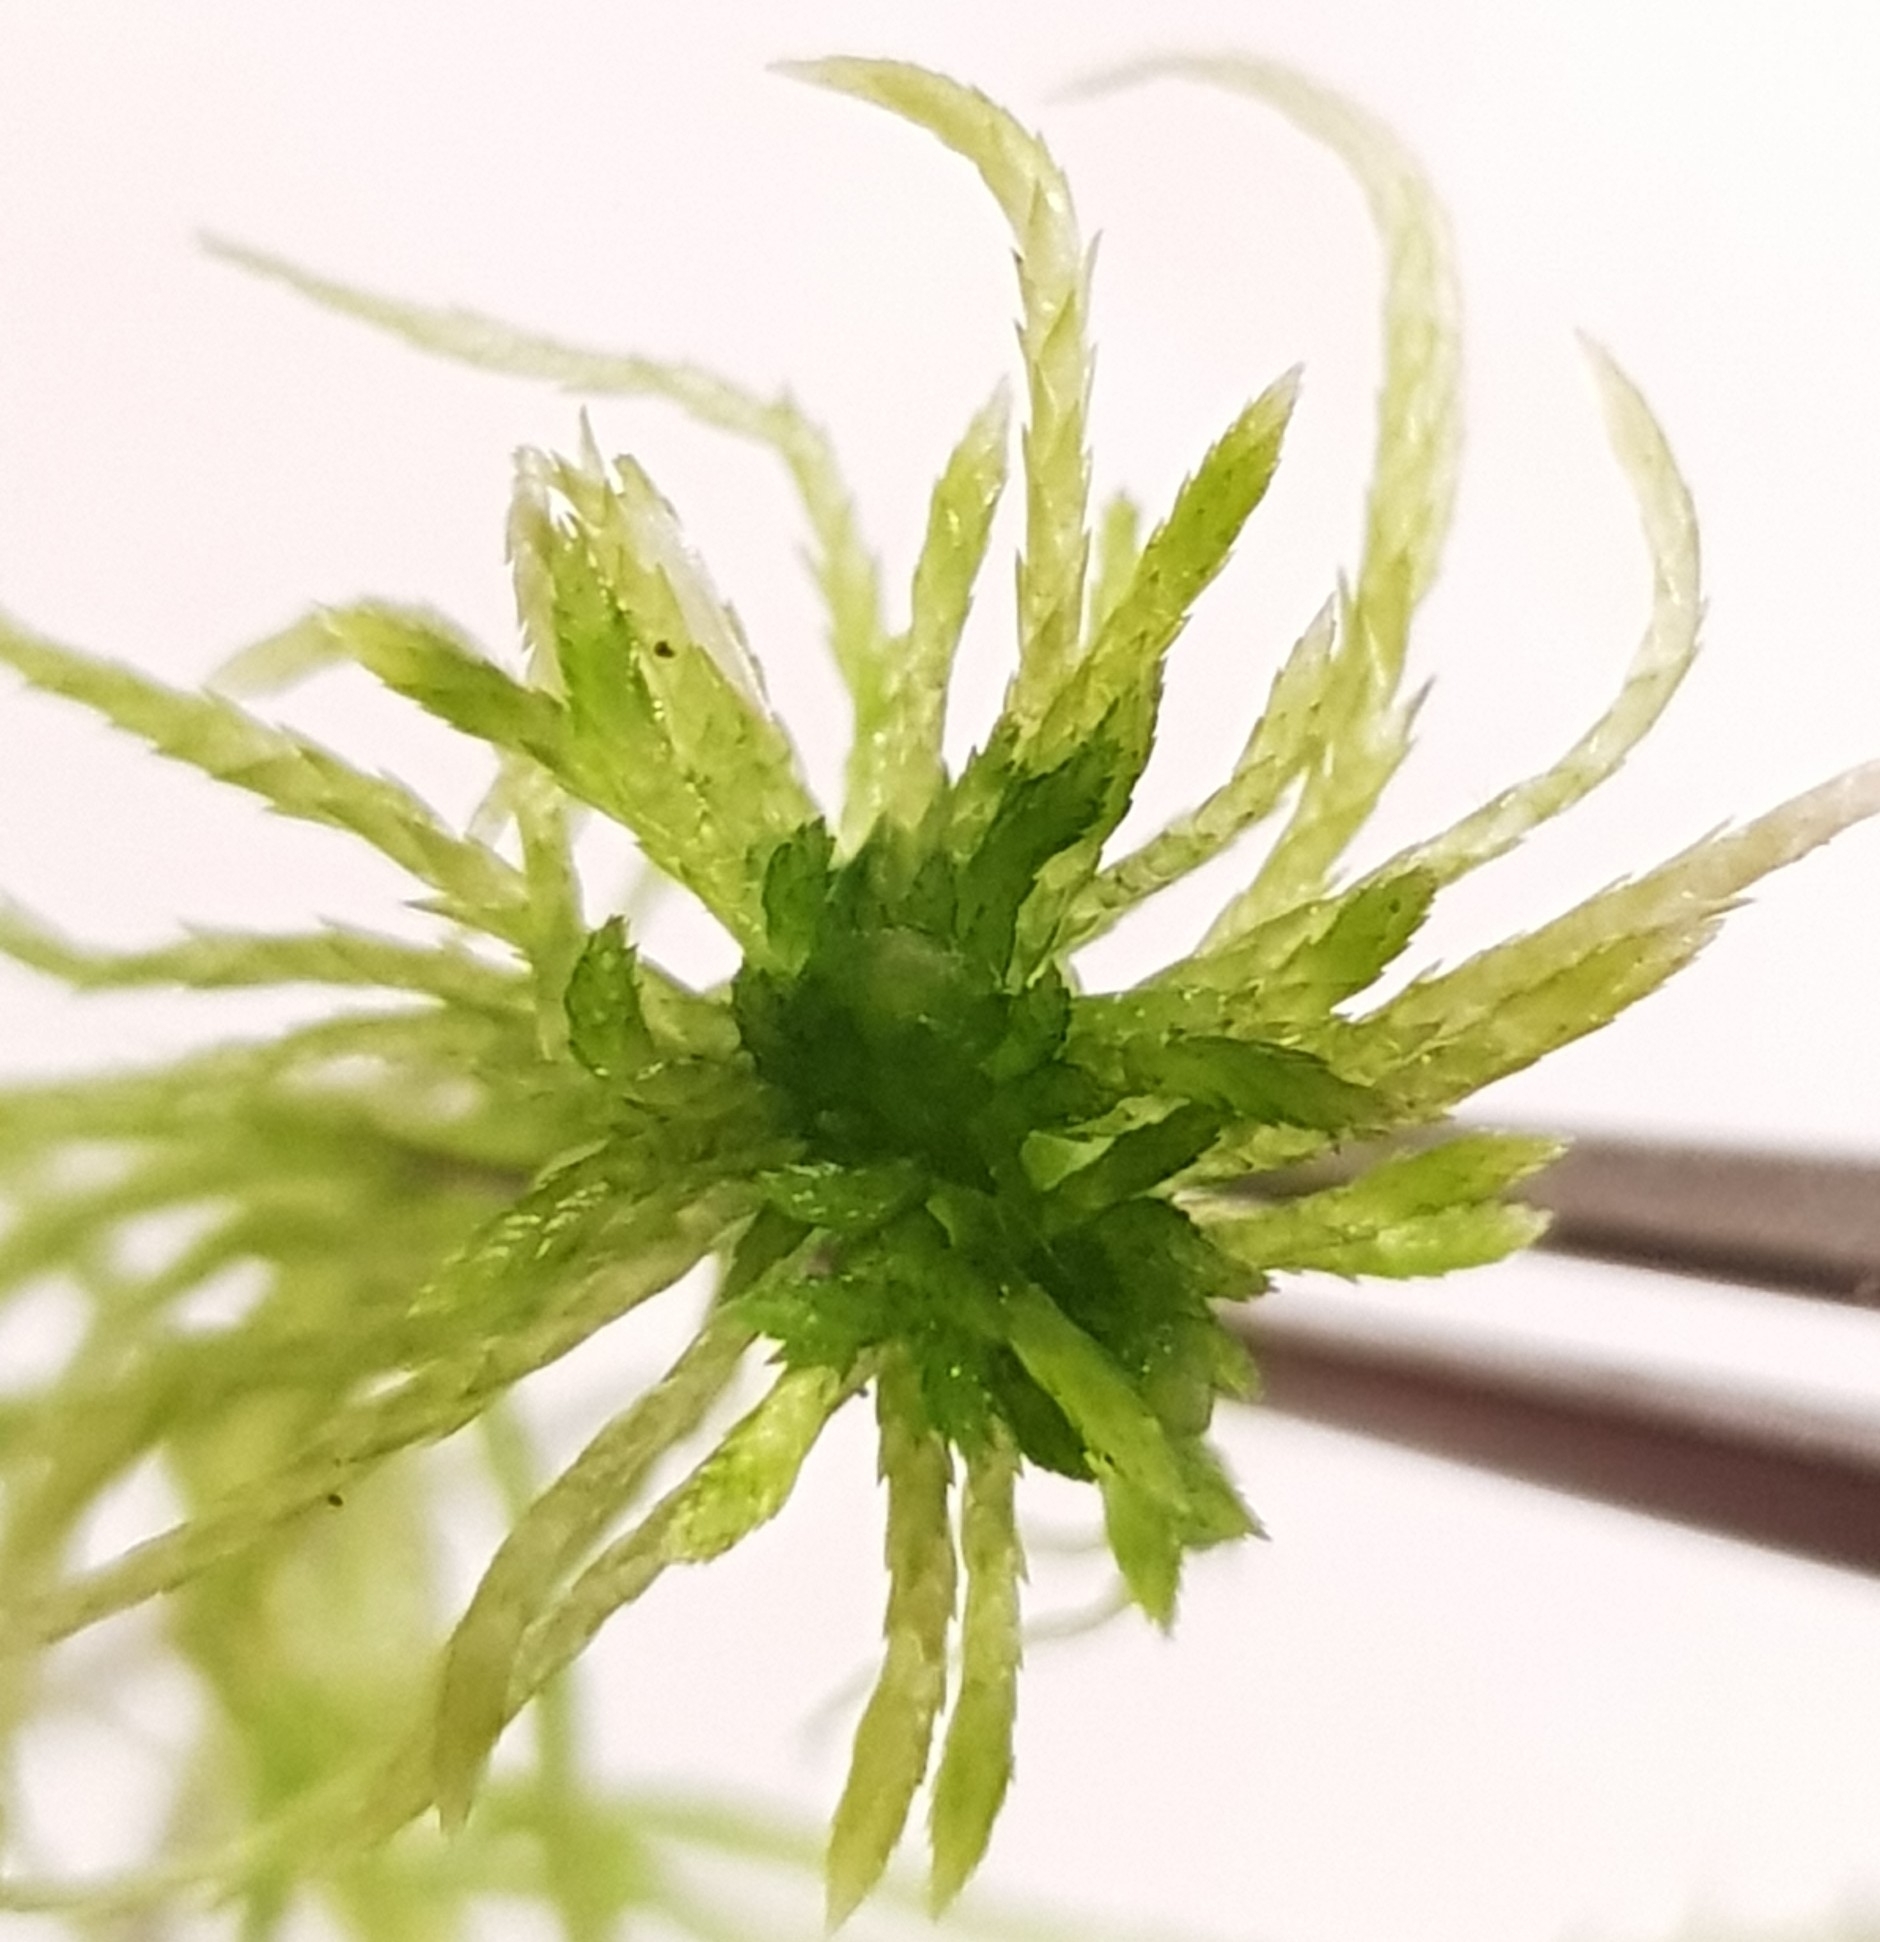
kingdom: Plantae
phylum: Bryophyta
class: Sphagnopsida
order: Sphagnales
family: Sphagnaceae
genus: Sphagnum
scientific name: Sphagnum fimbriatum
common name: Fringed peat moss
